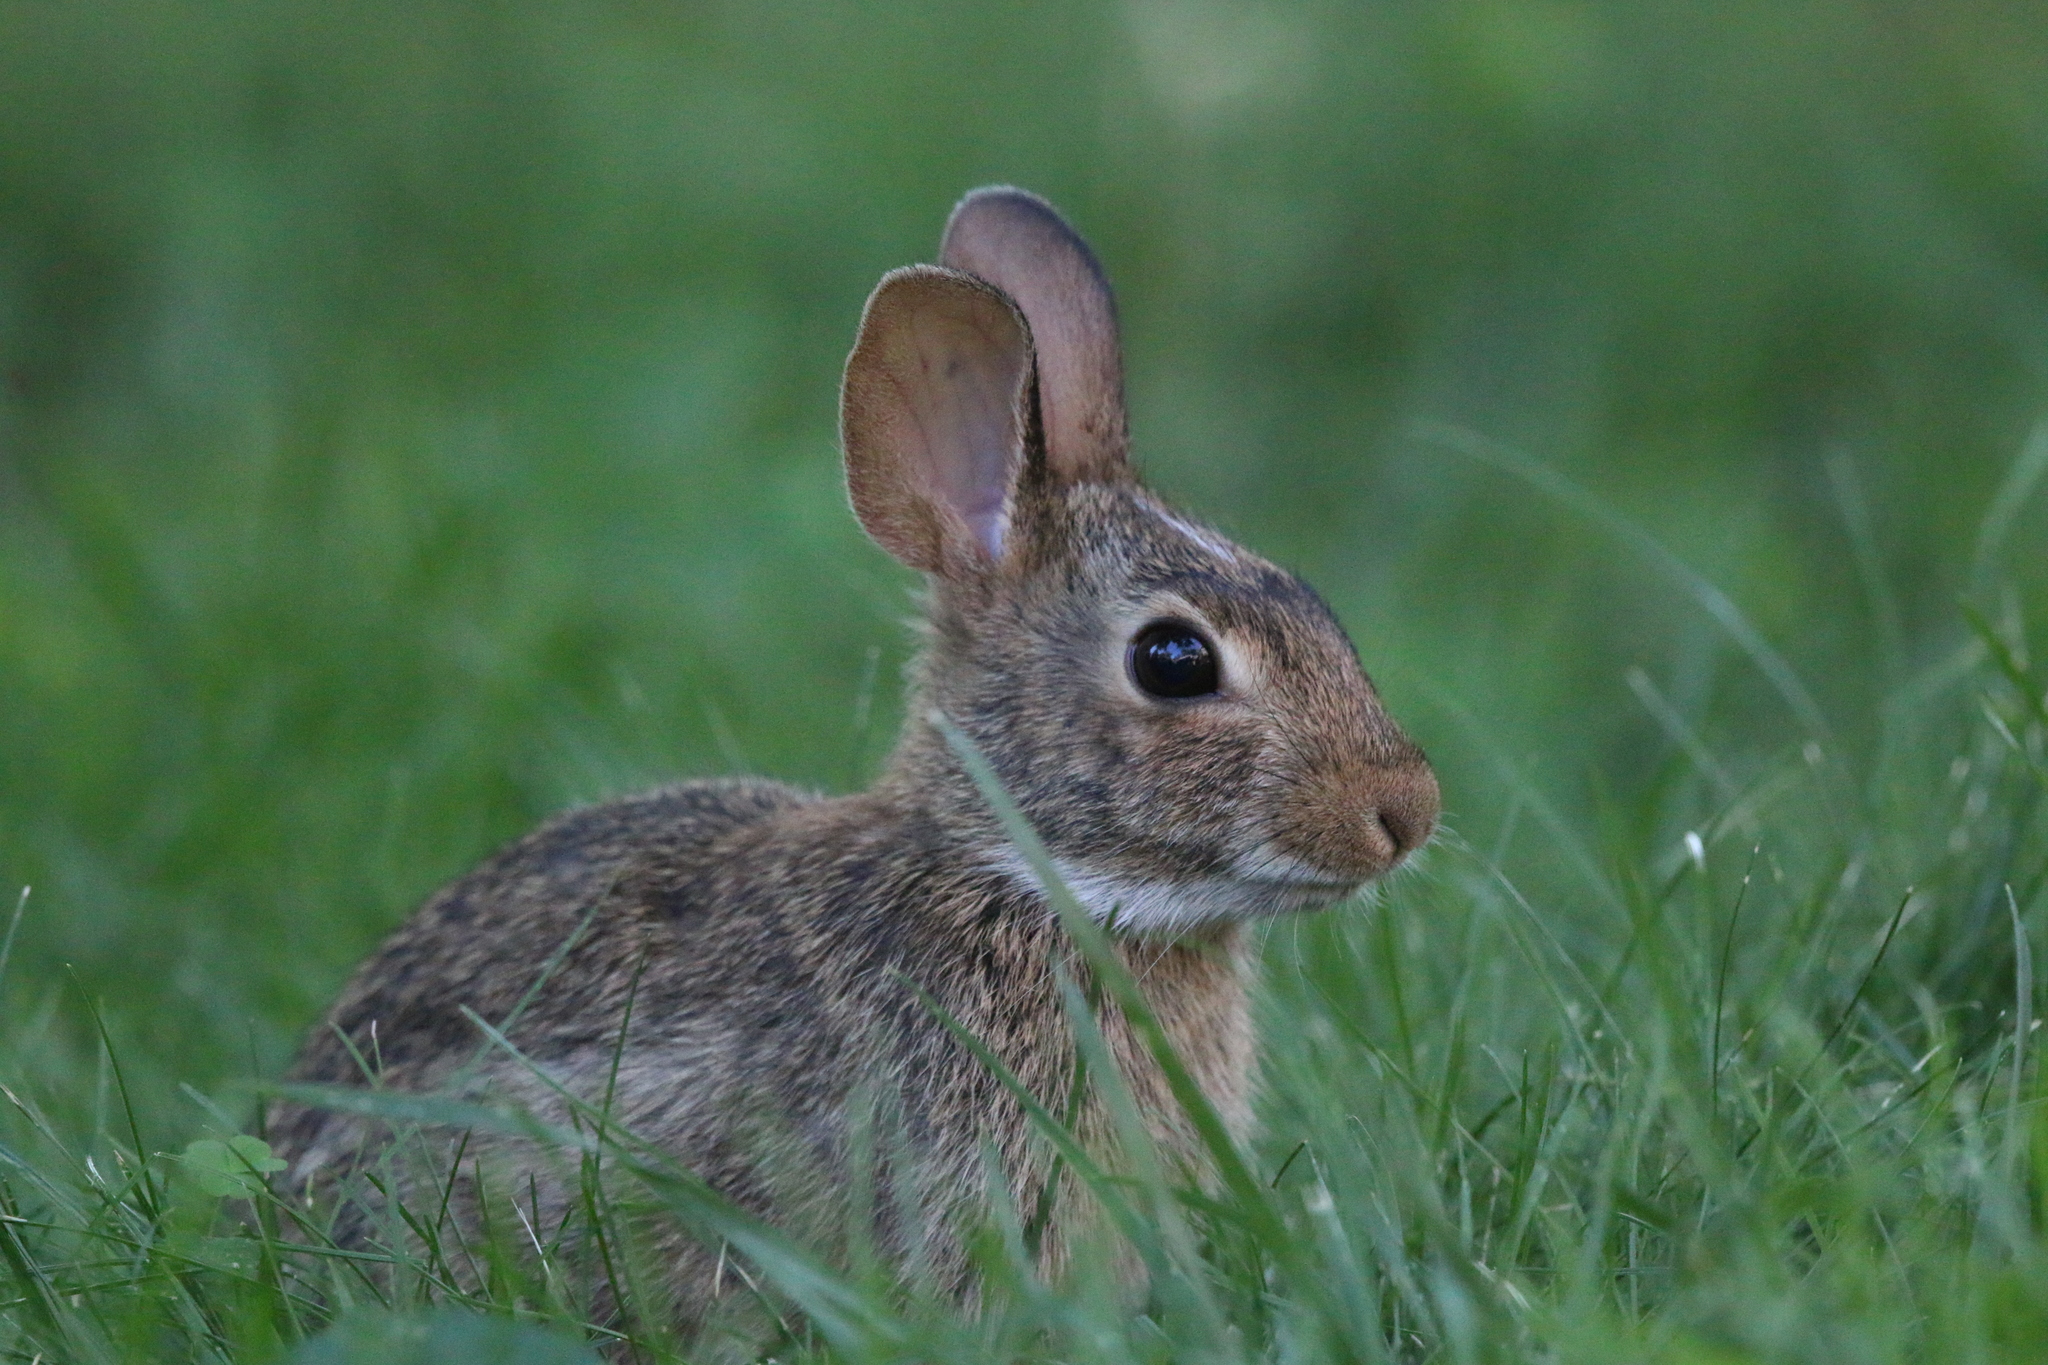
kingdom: Animalia
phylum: Chordata
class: Mammalia
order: Lagomorpha
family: Leporidae
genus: Sylvilagus
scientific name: Sylvilagus floridanus
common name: Eastern cottontail
